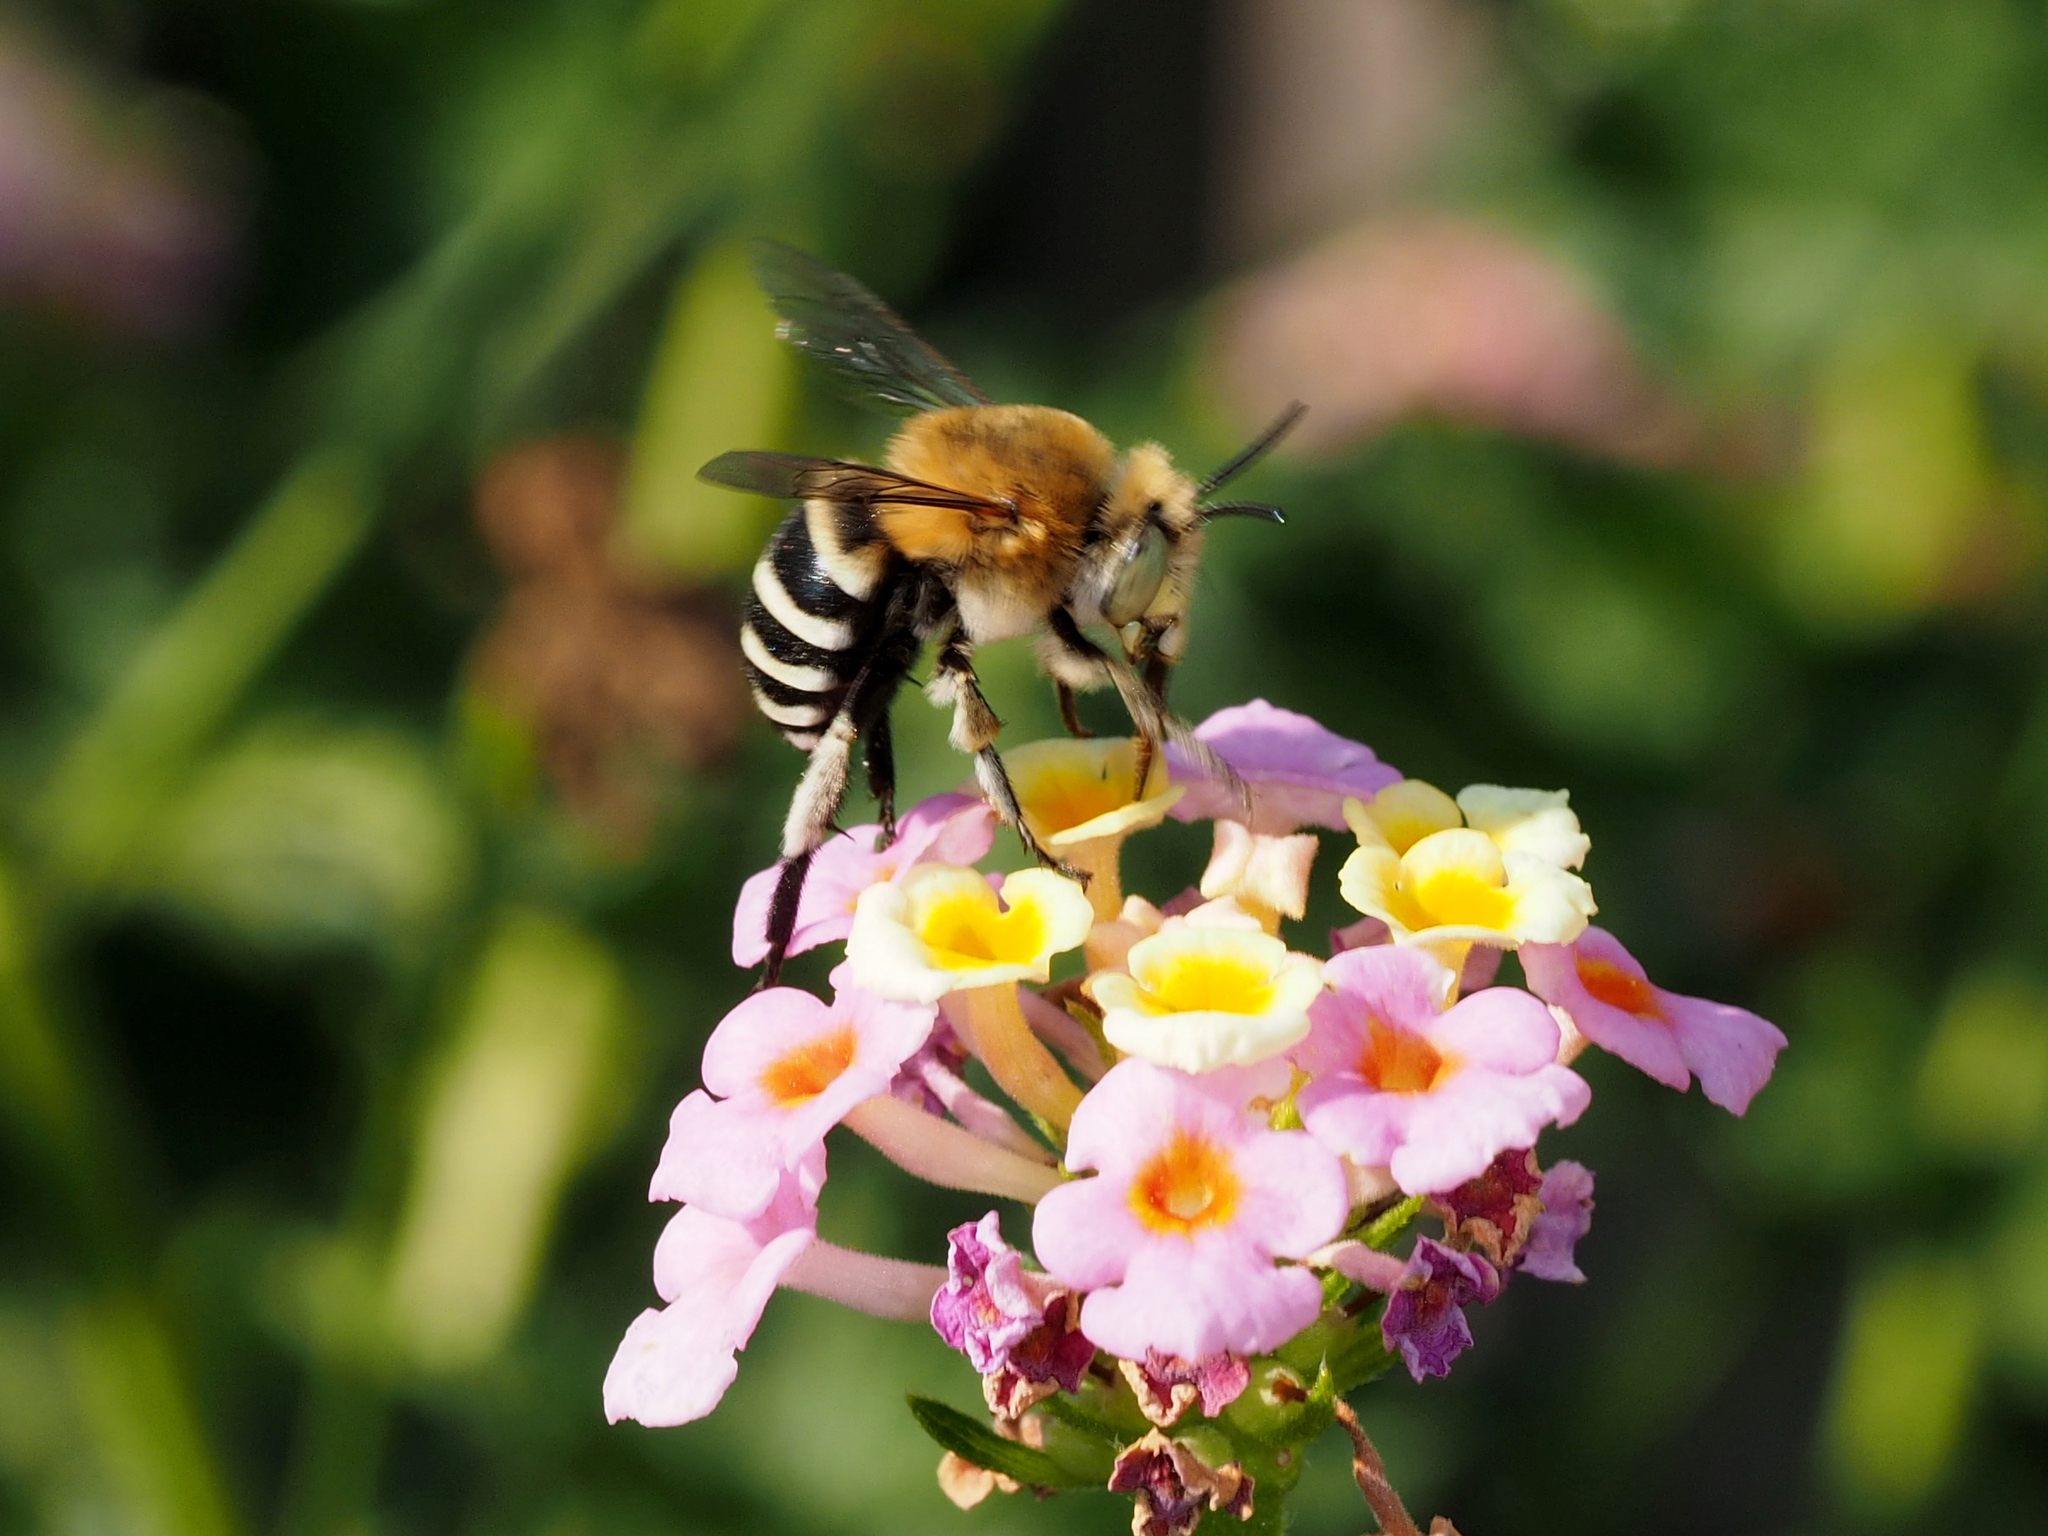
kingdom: Animalia
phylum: Arthropoda
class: Insecta
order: Hymenoptera
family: Apidae
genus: Amegilla
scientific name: Amegilla quadrifasciata
